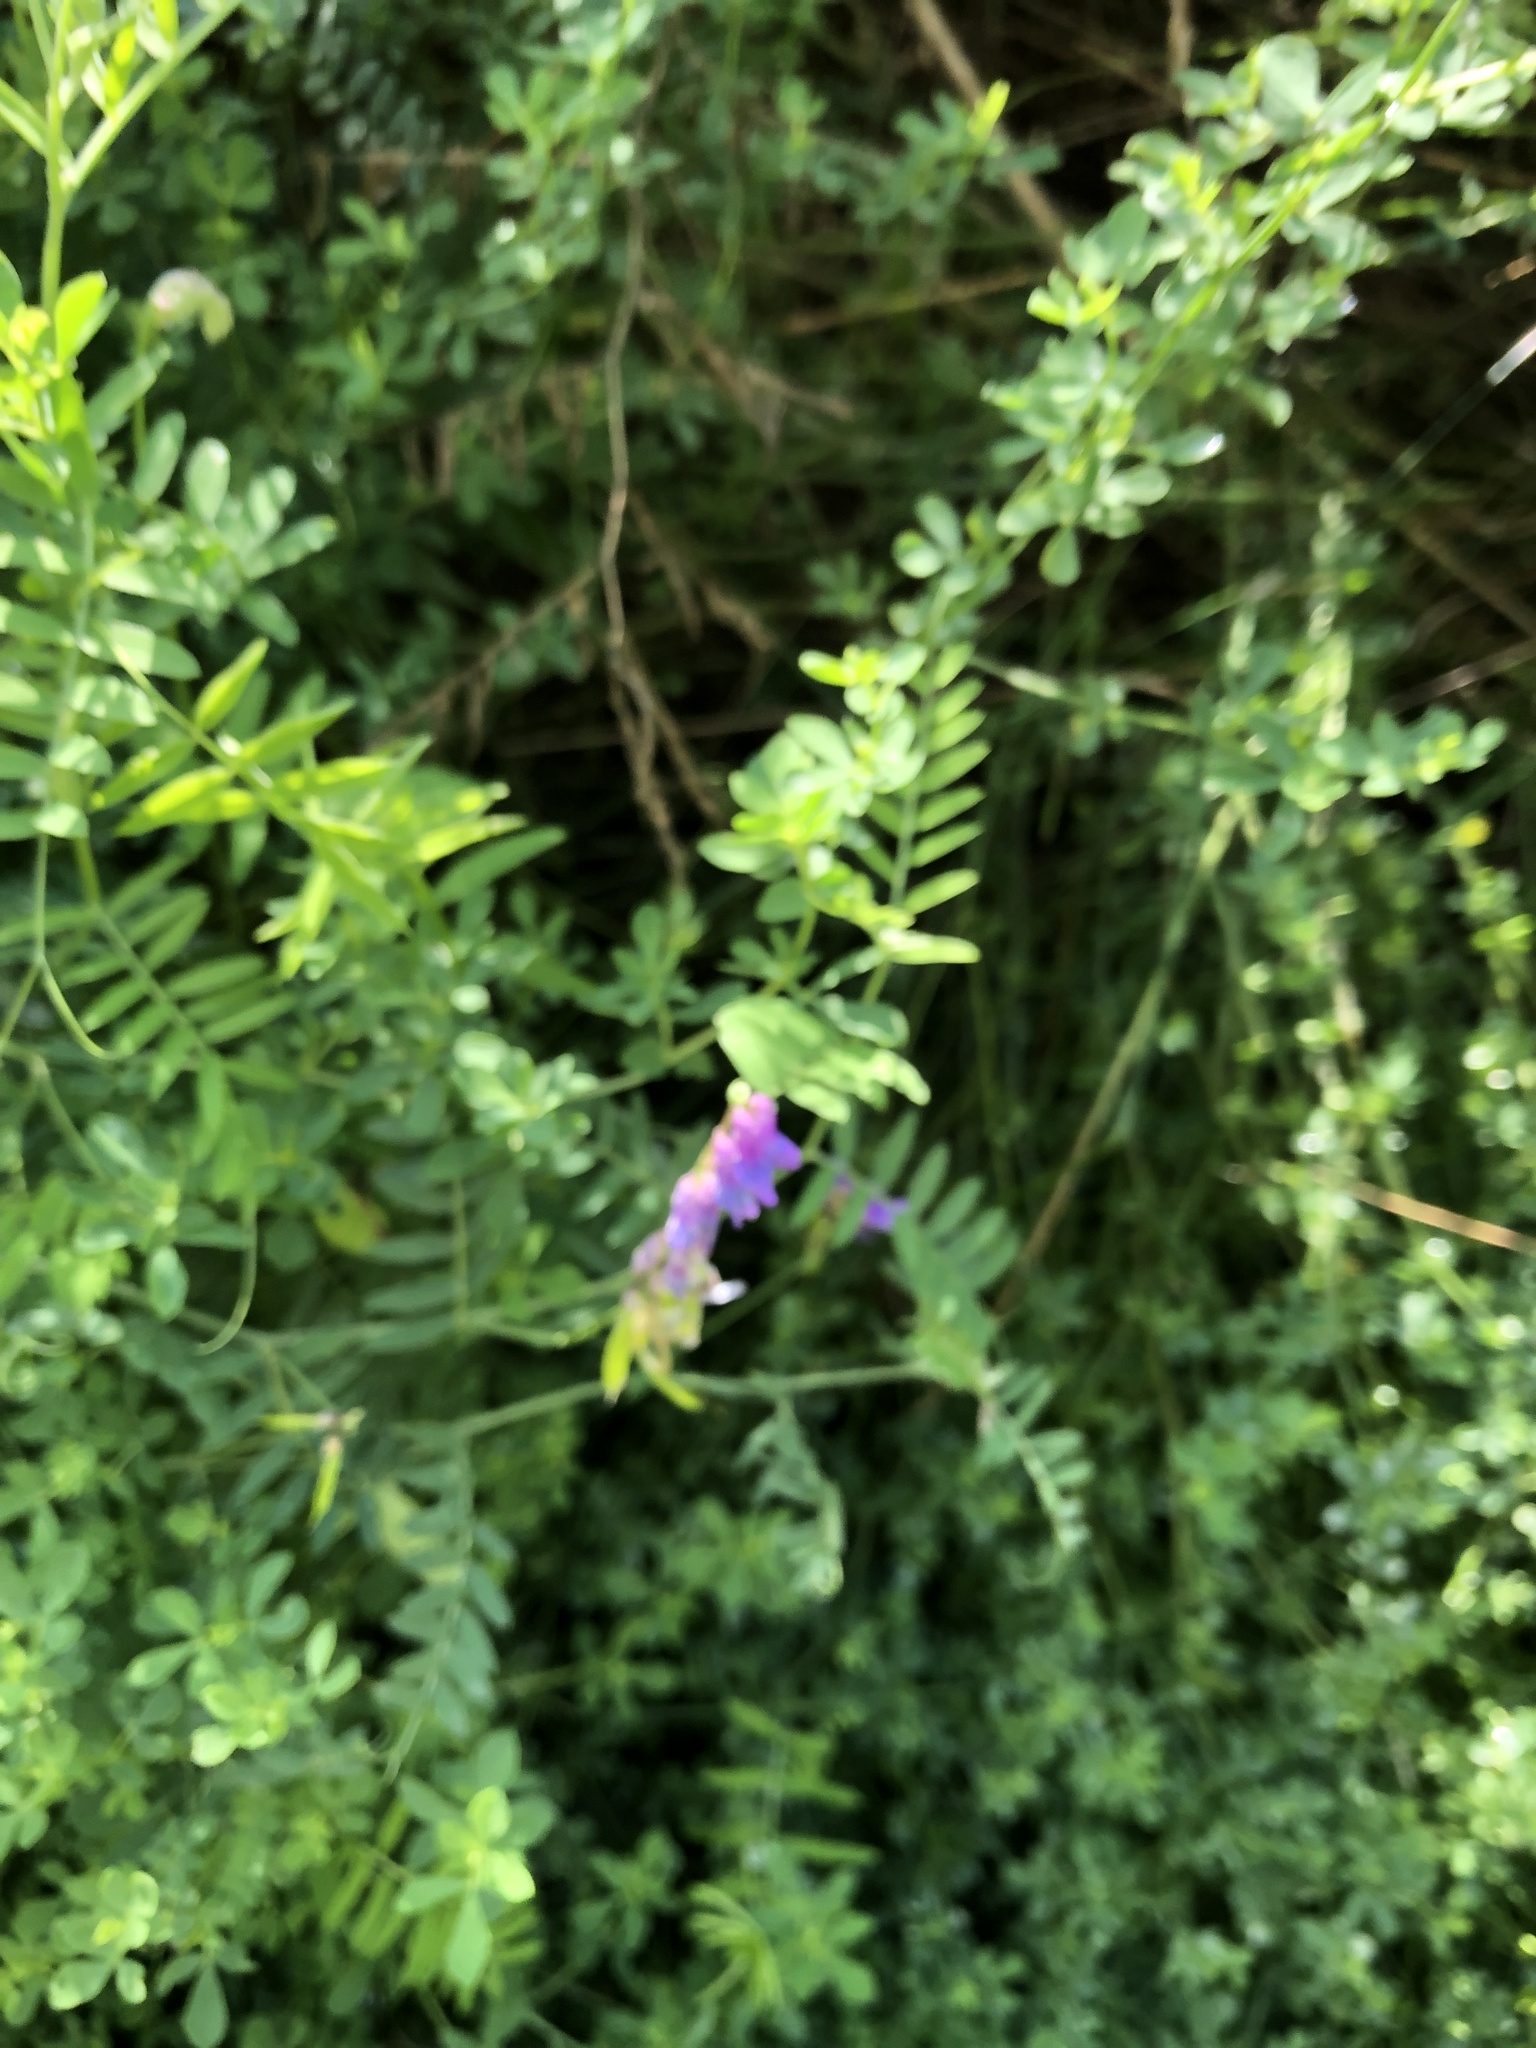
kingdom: Plantae
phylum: Tracheophyta
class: Magnoliopsida
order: Fabales
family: Fabaceae
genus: Vicia
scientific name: Vicia cracca
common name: Bird vetch
